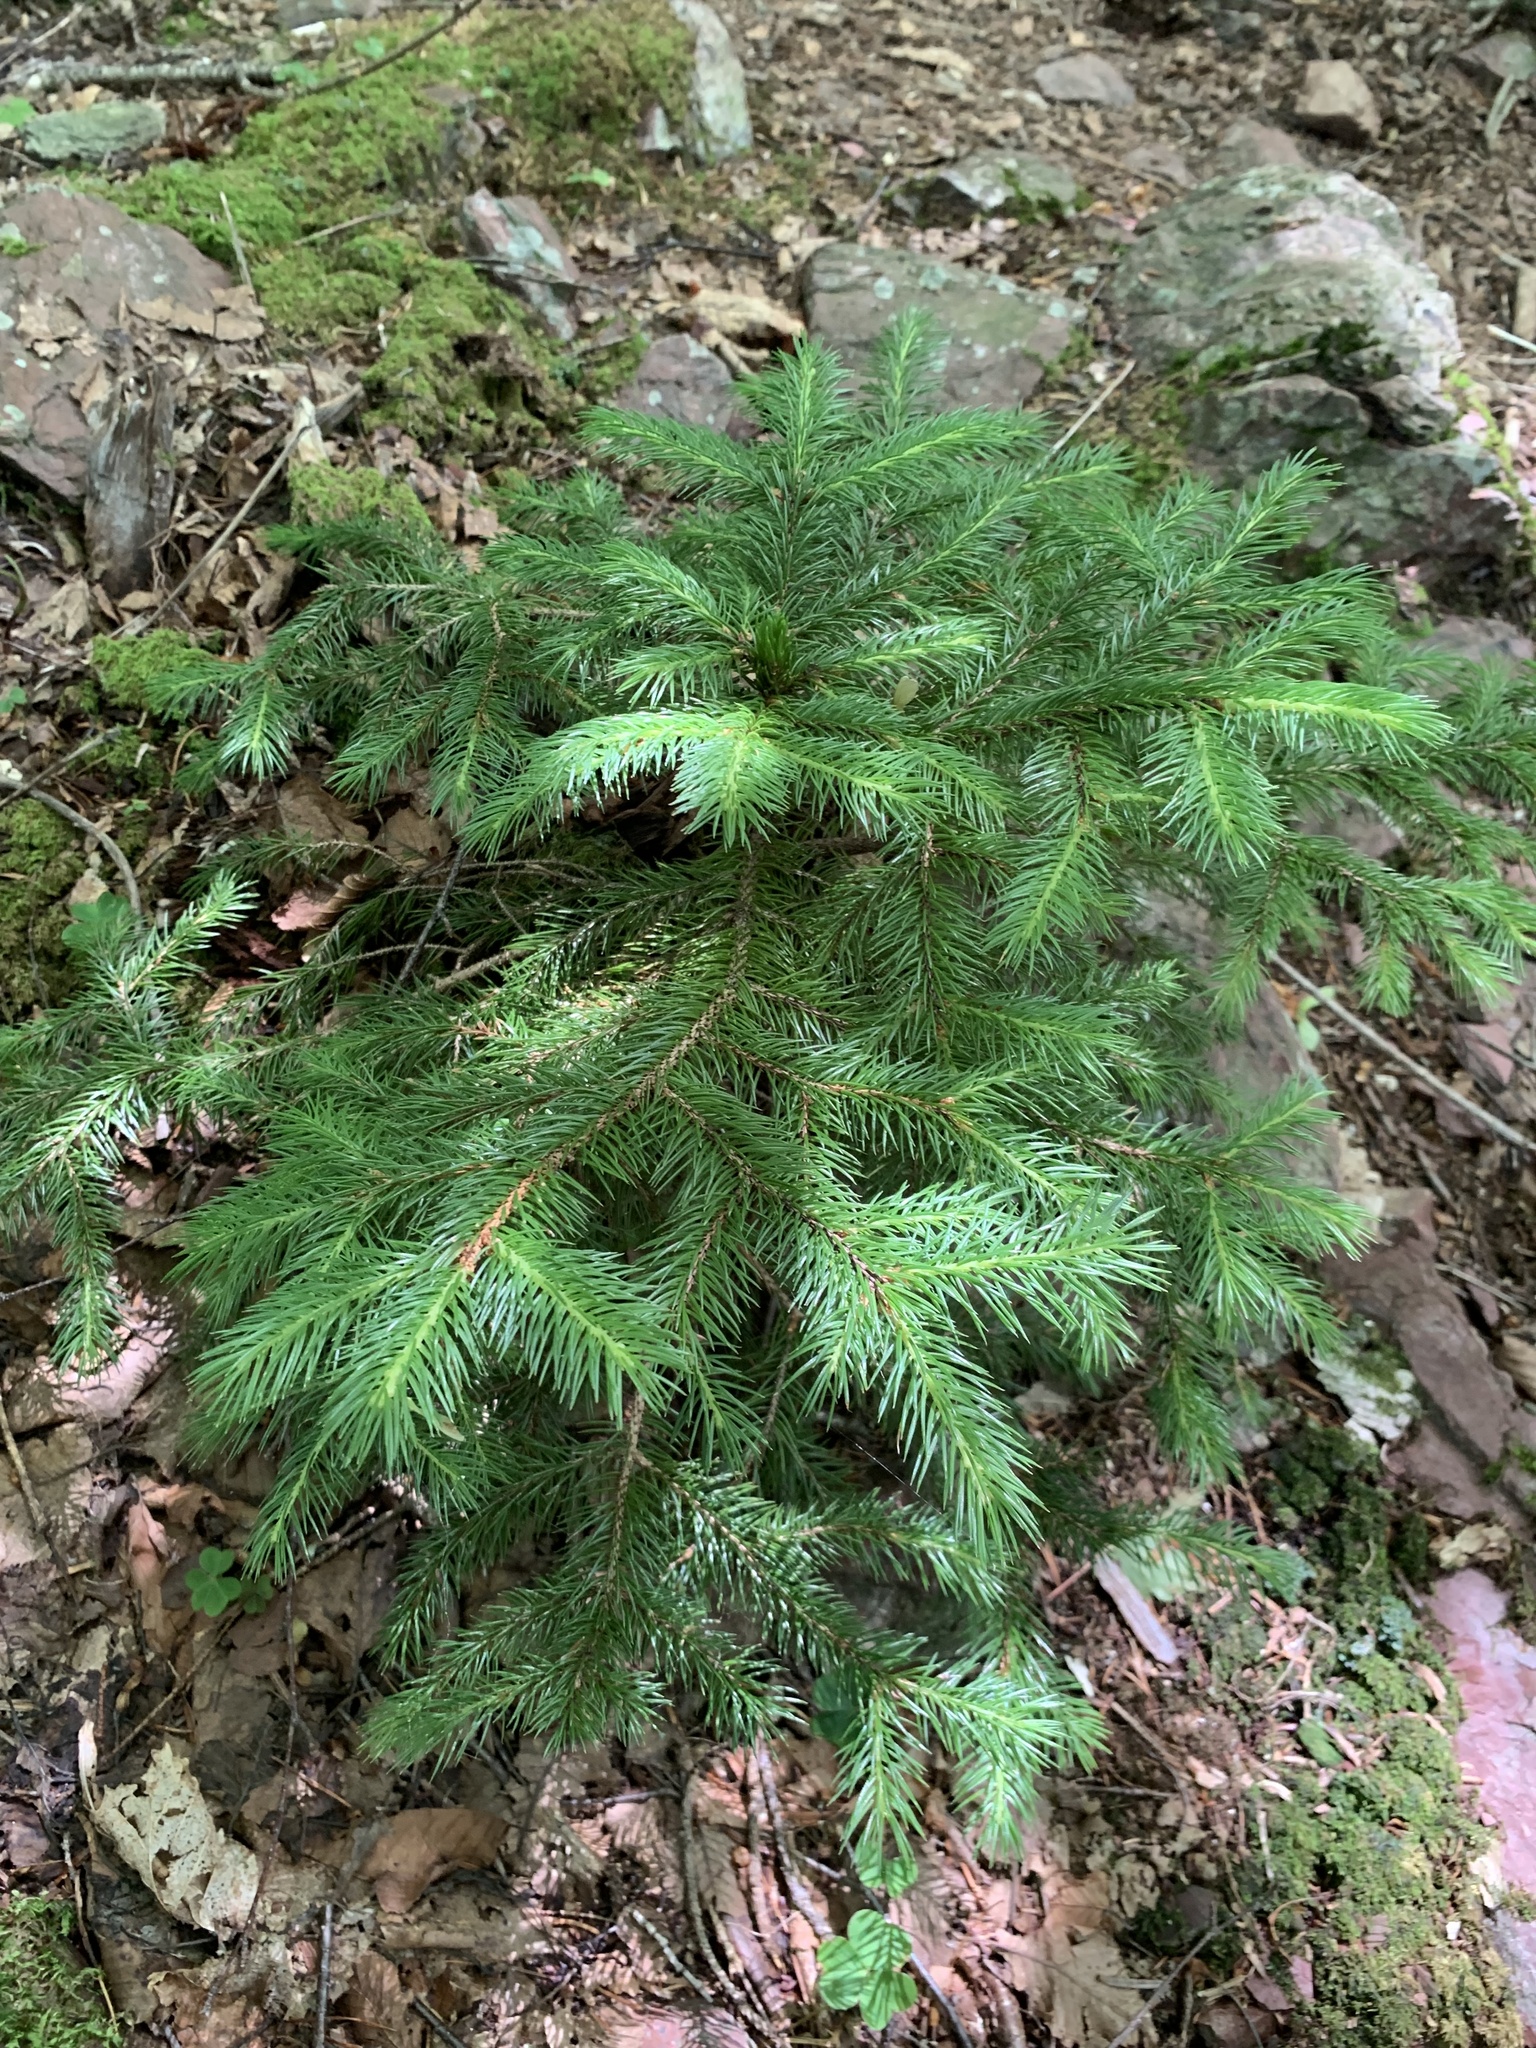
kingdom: Plantae
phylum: Tracheophyta
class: Pinopsida
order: Pinales
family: Pinaceae
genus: Picea
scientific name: Picea jezoensis
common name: Yeddo spruce
